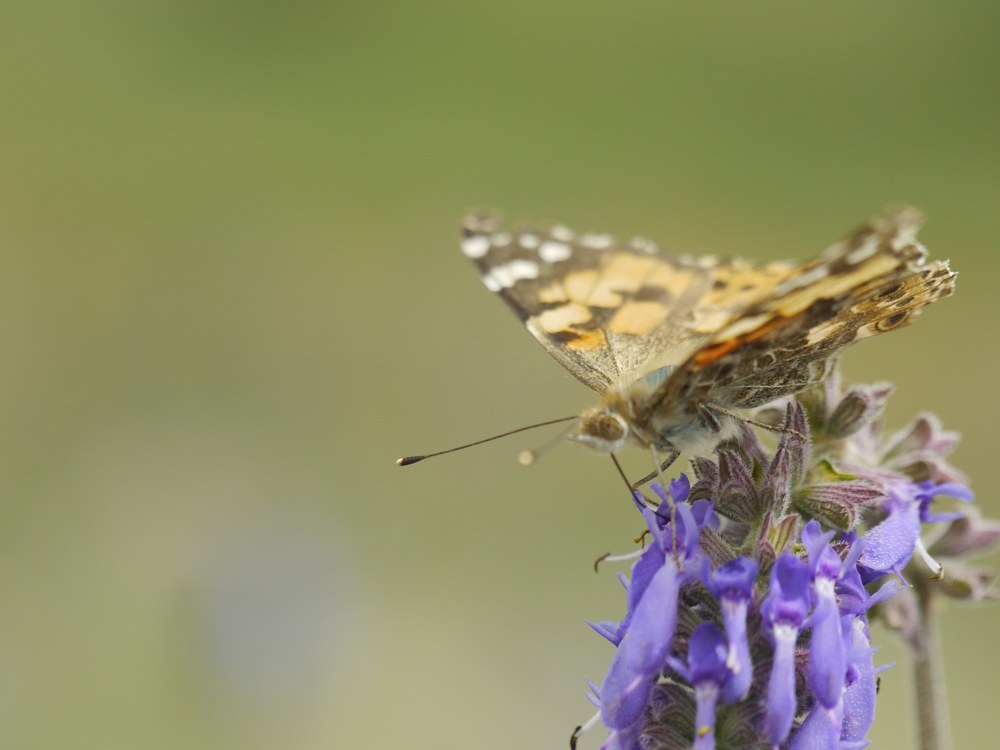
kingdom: Animalia
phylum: Arthropoda
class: Insecta
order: Lepidoptera
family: Nymphalidae
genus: Vanessa
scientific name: Vanessa cardui
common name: Painted lady
